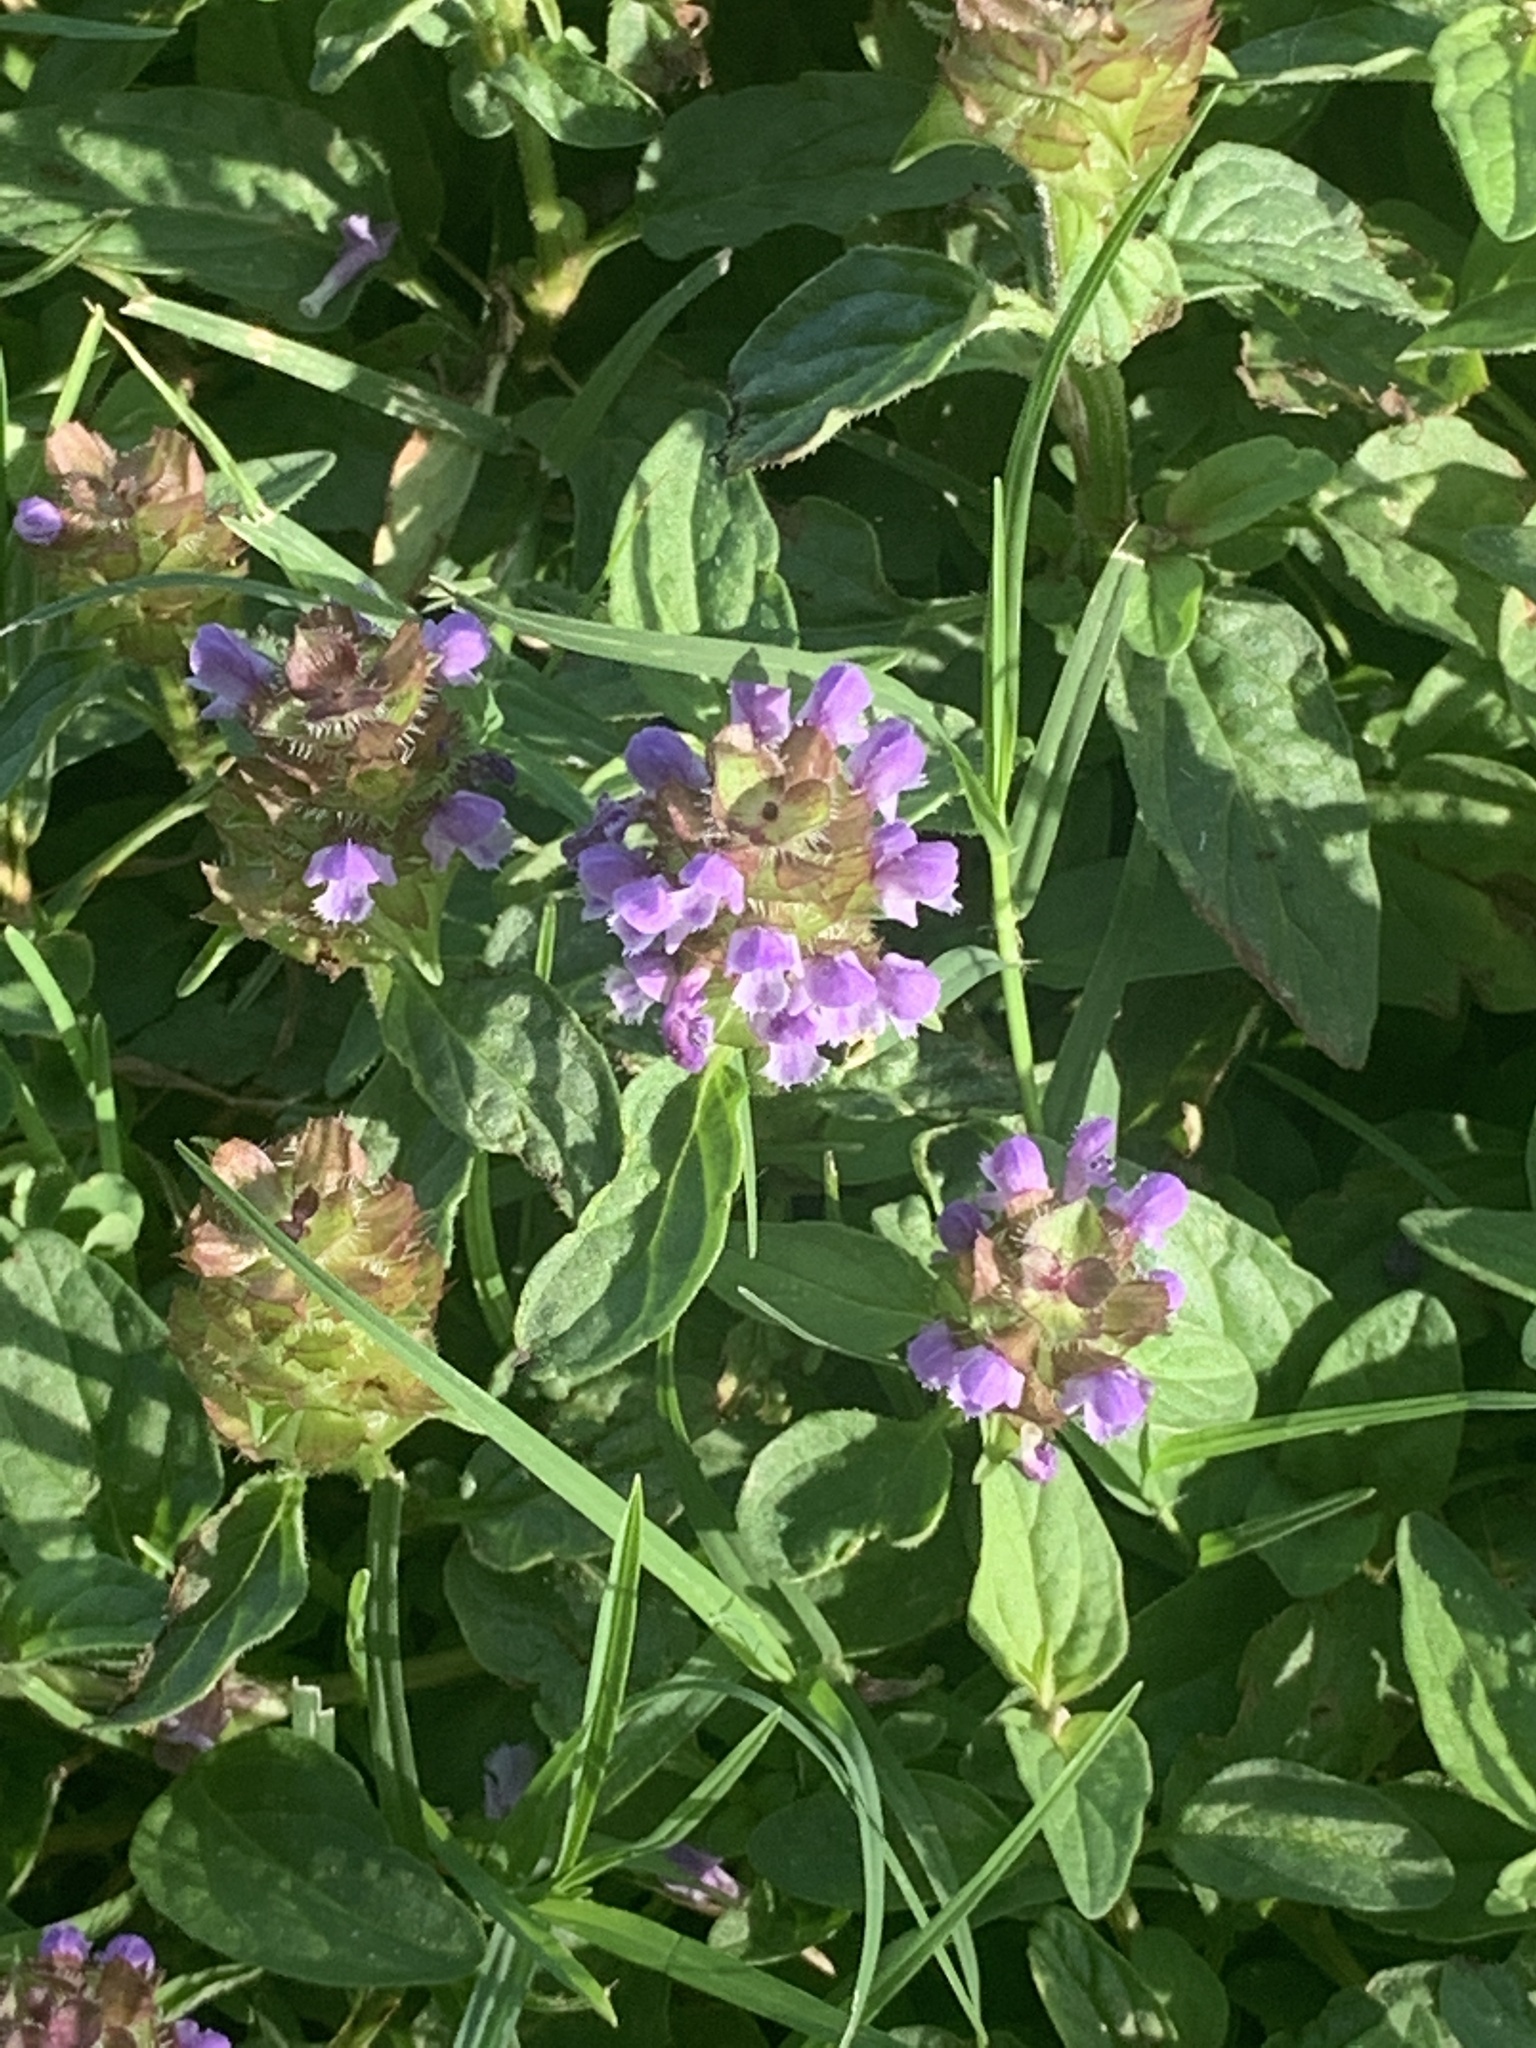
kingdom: Plantae
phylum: Tracheophyta
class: Magnoliopsida
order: Lamiales
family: Lamiaceae
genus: Prunella
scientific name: Prunella vulgaris
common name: Heal-all
